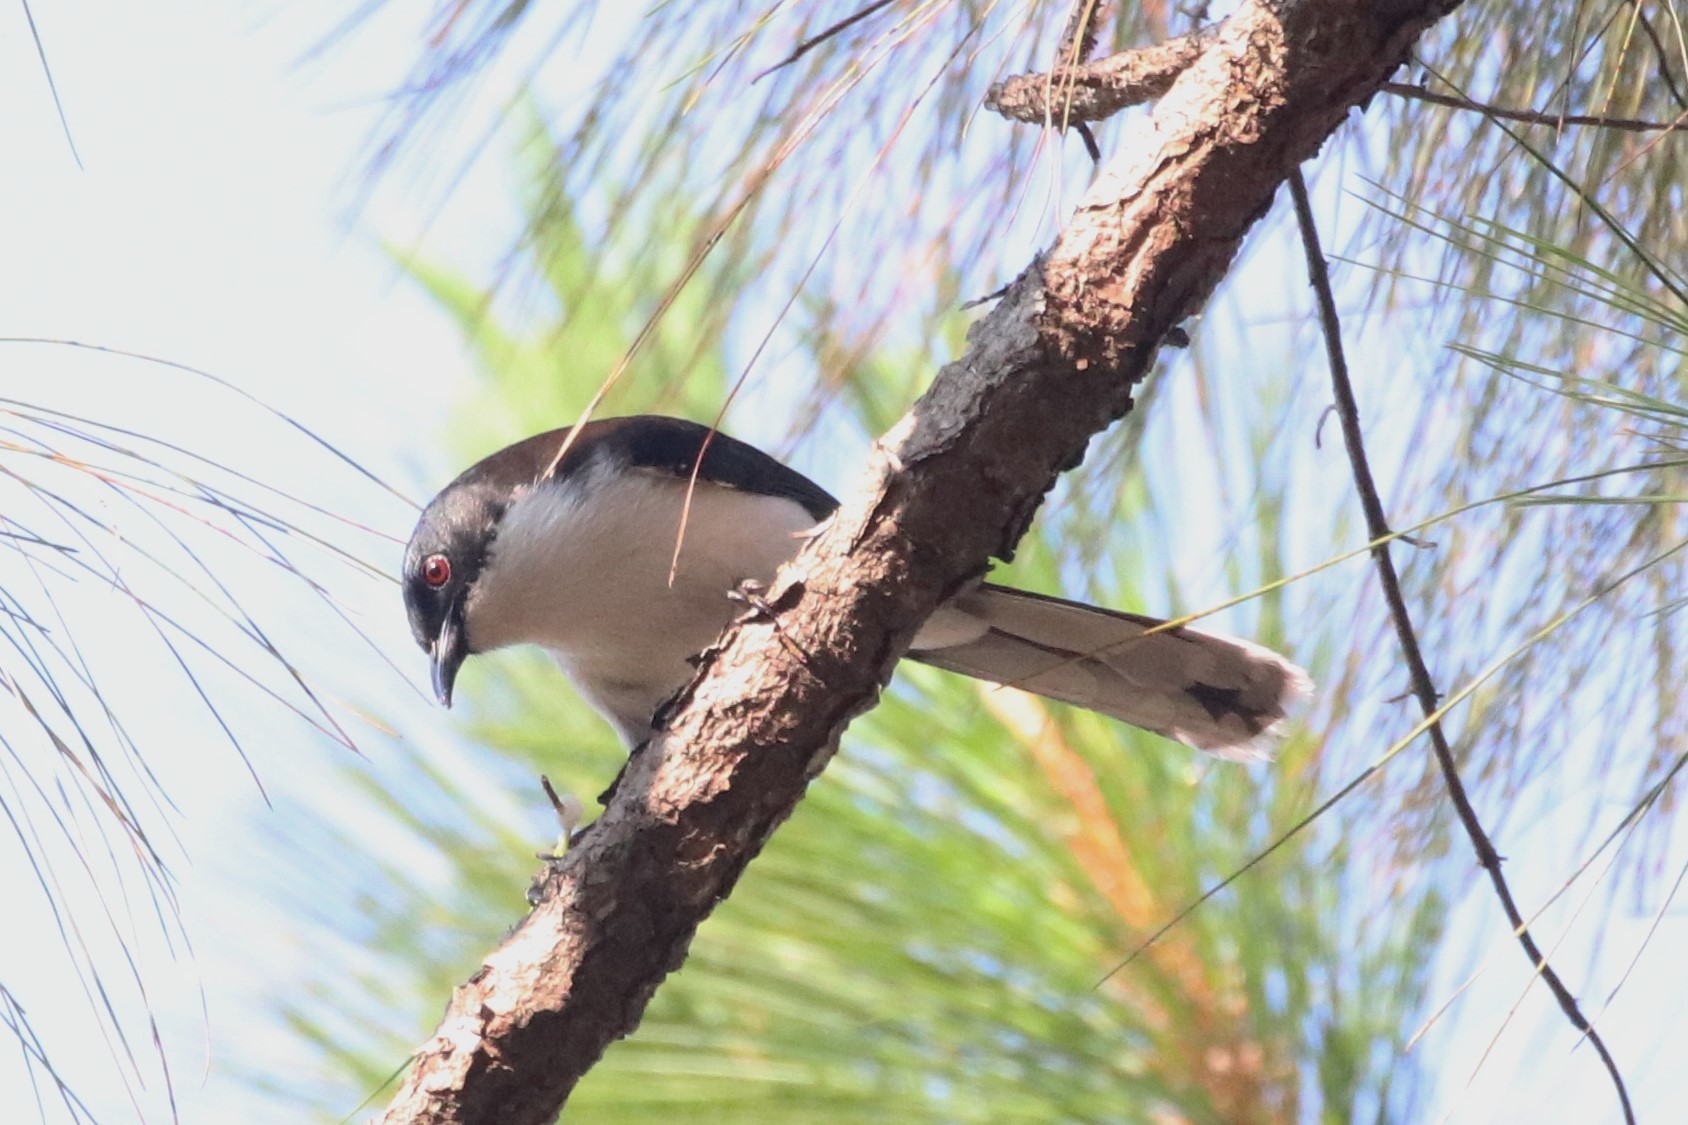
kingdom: Animalia
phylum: Chordata
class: Aves
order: Passeriformes
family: Leiothrichidae
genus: Heterophasia
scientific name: Heterophasia melanoleuca
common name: Dark-backed sibia
